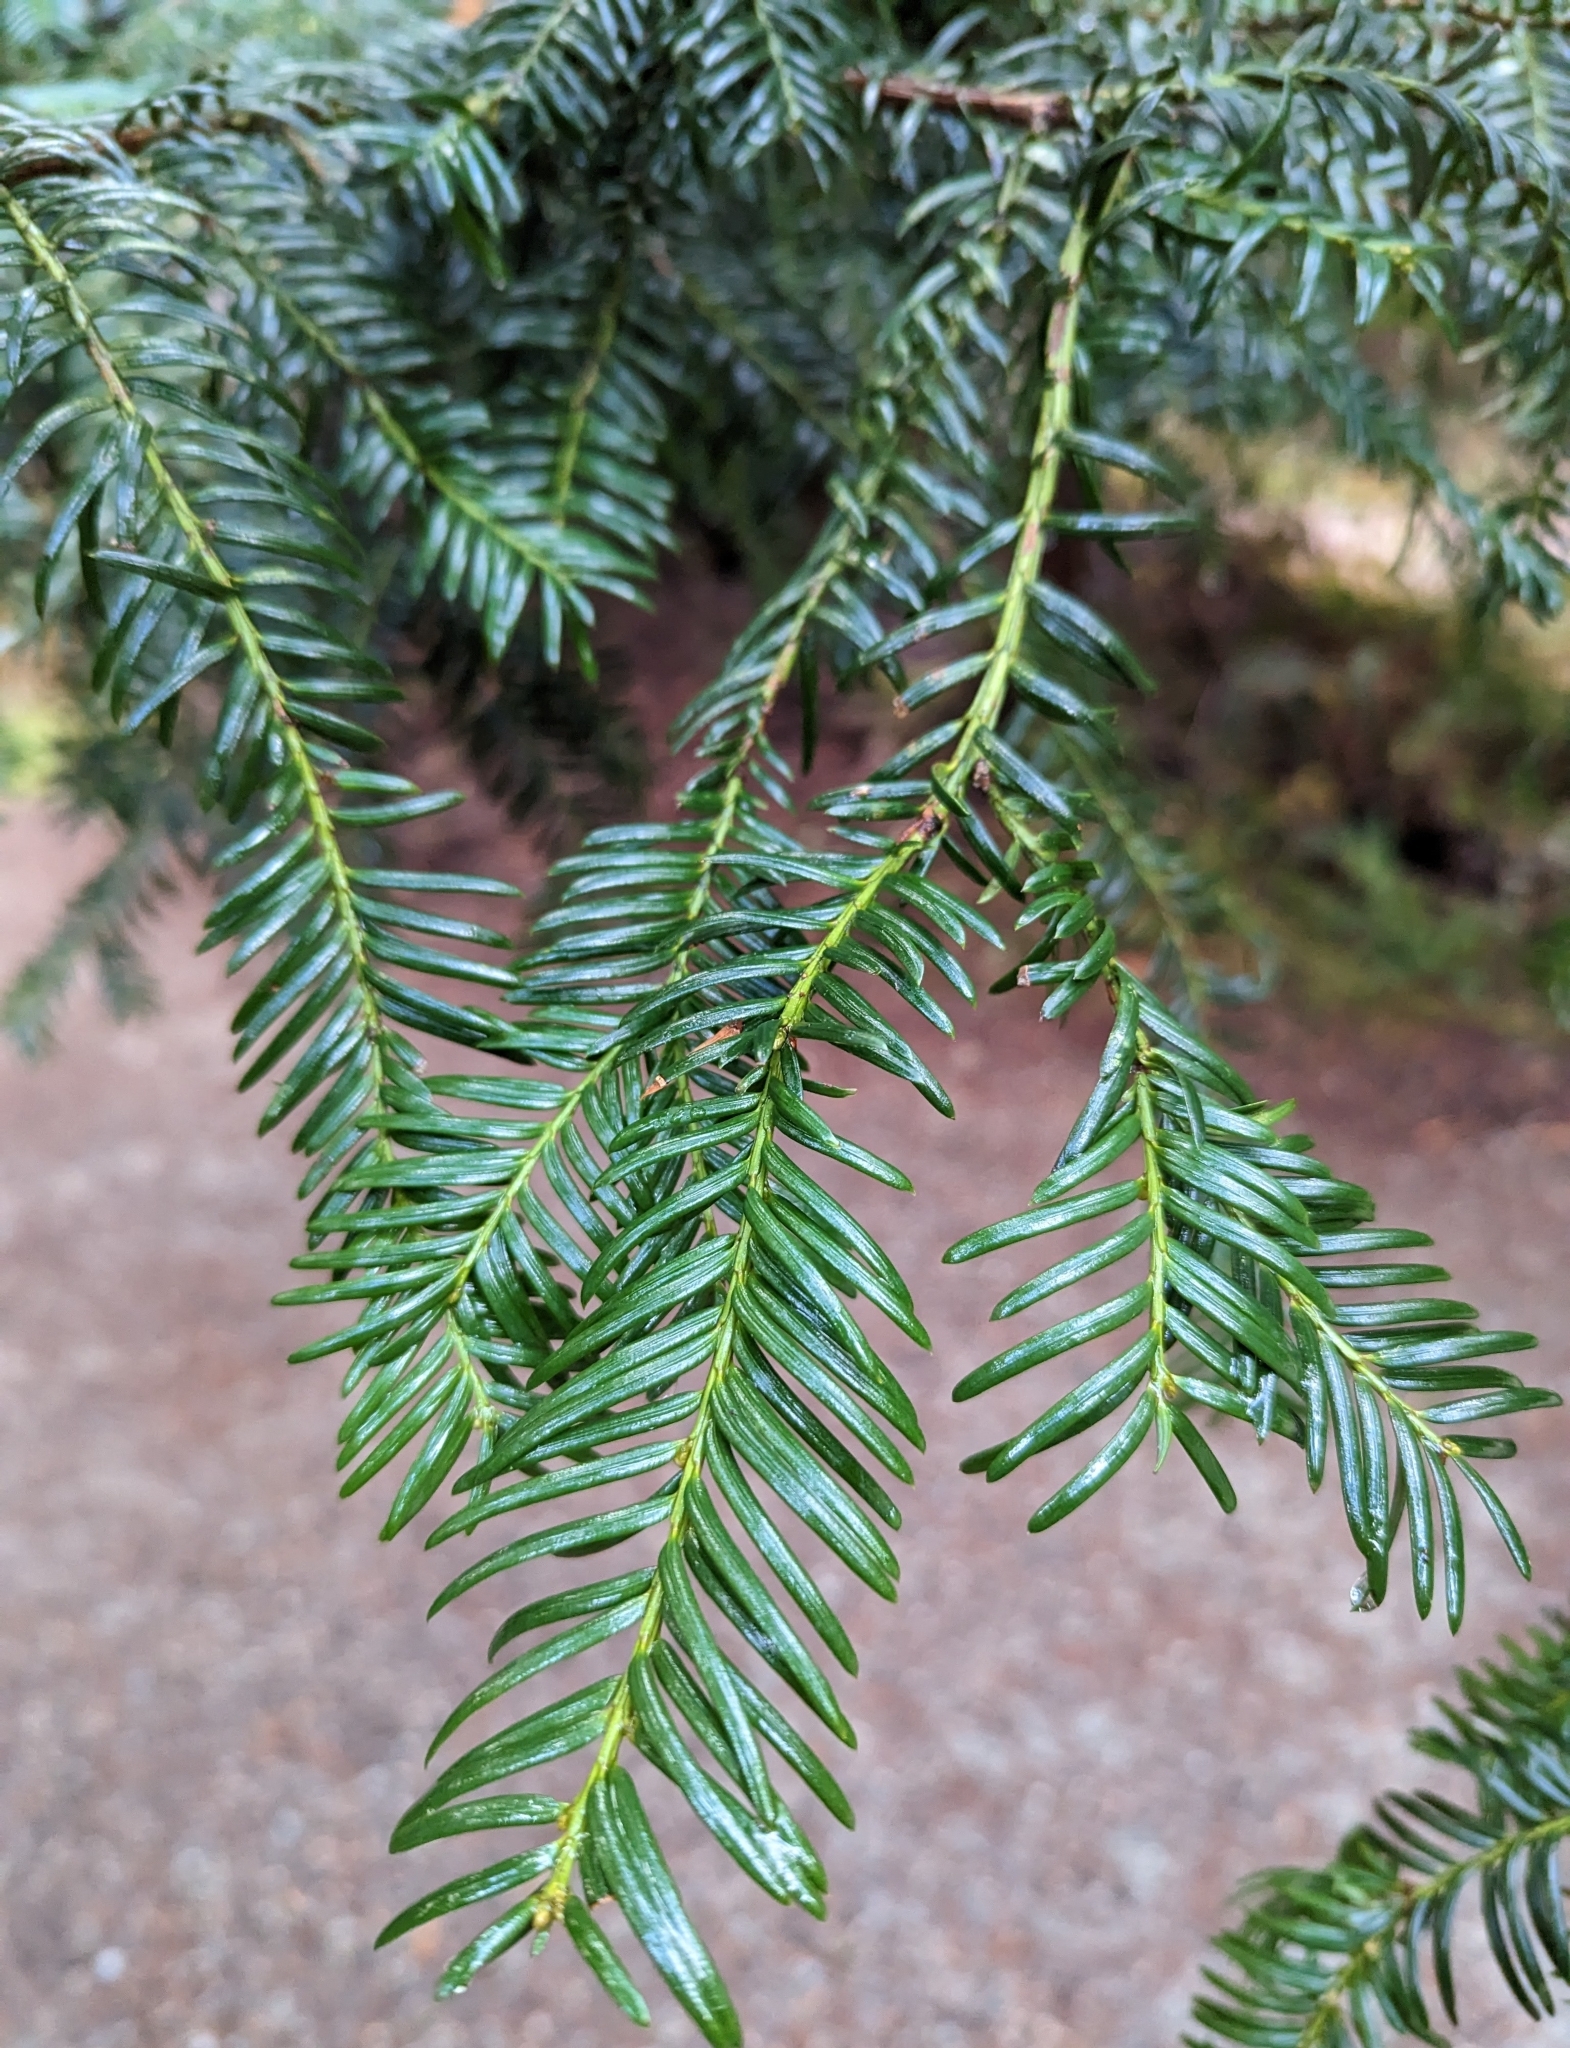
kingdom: Plantae
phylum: Tracheophyta
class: Pinopsida
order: Pinales
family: Taxaceae
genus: Taxus
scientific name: Taxus brevifolia
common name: Pacific yew
